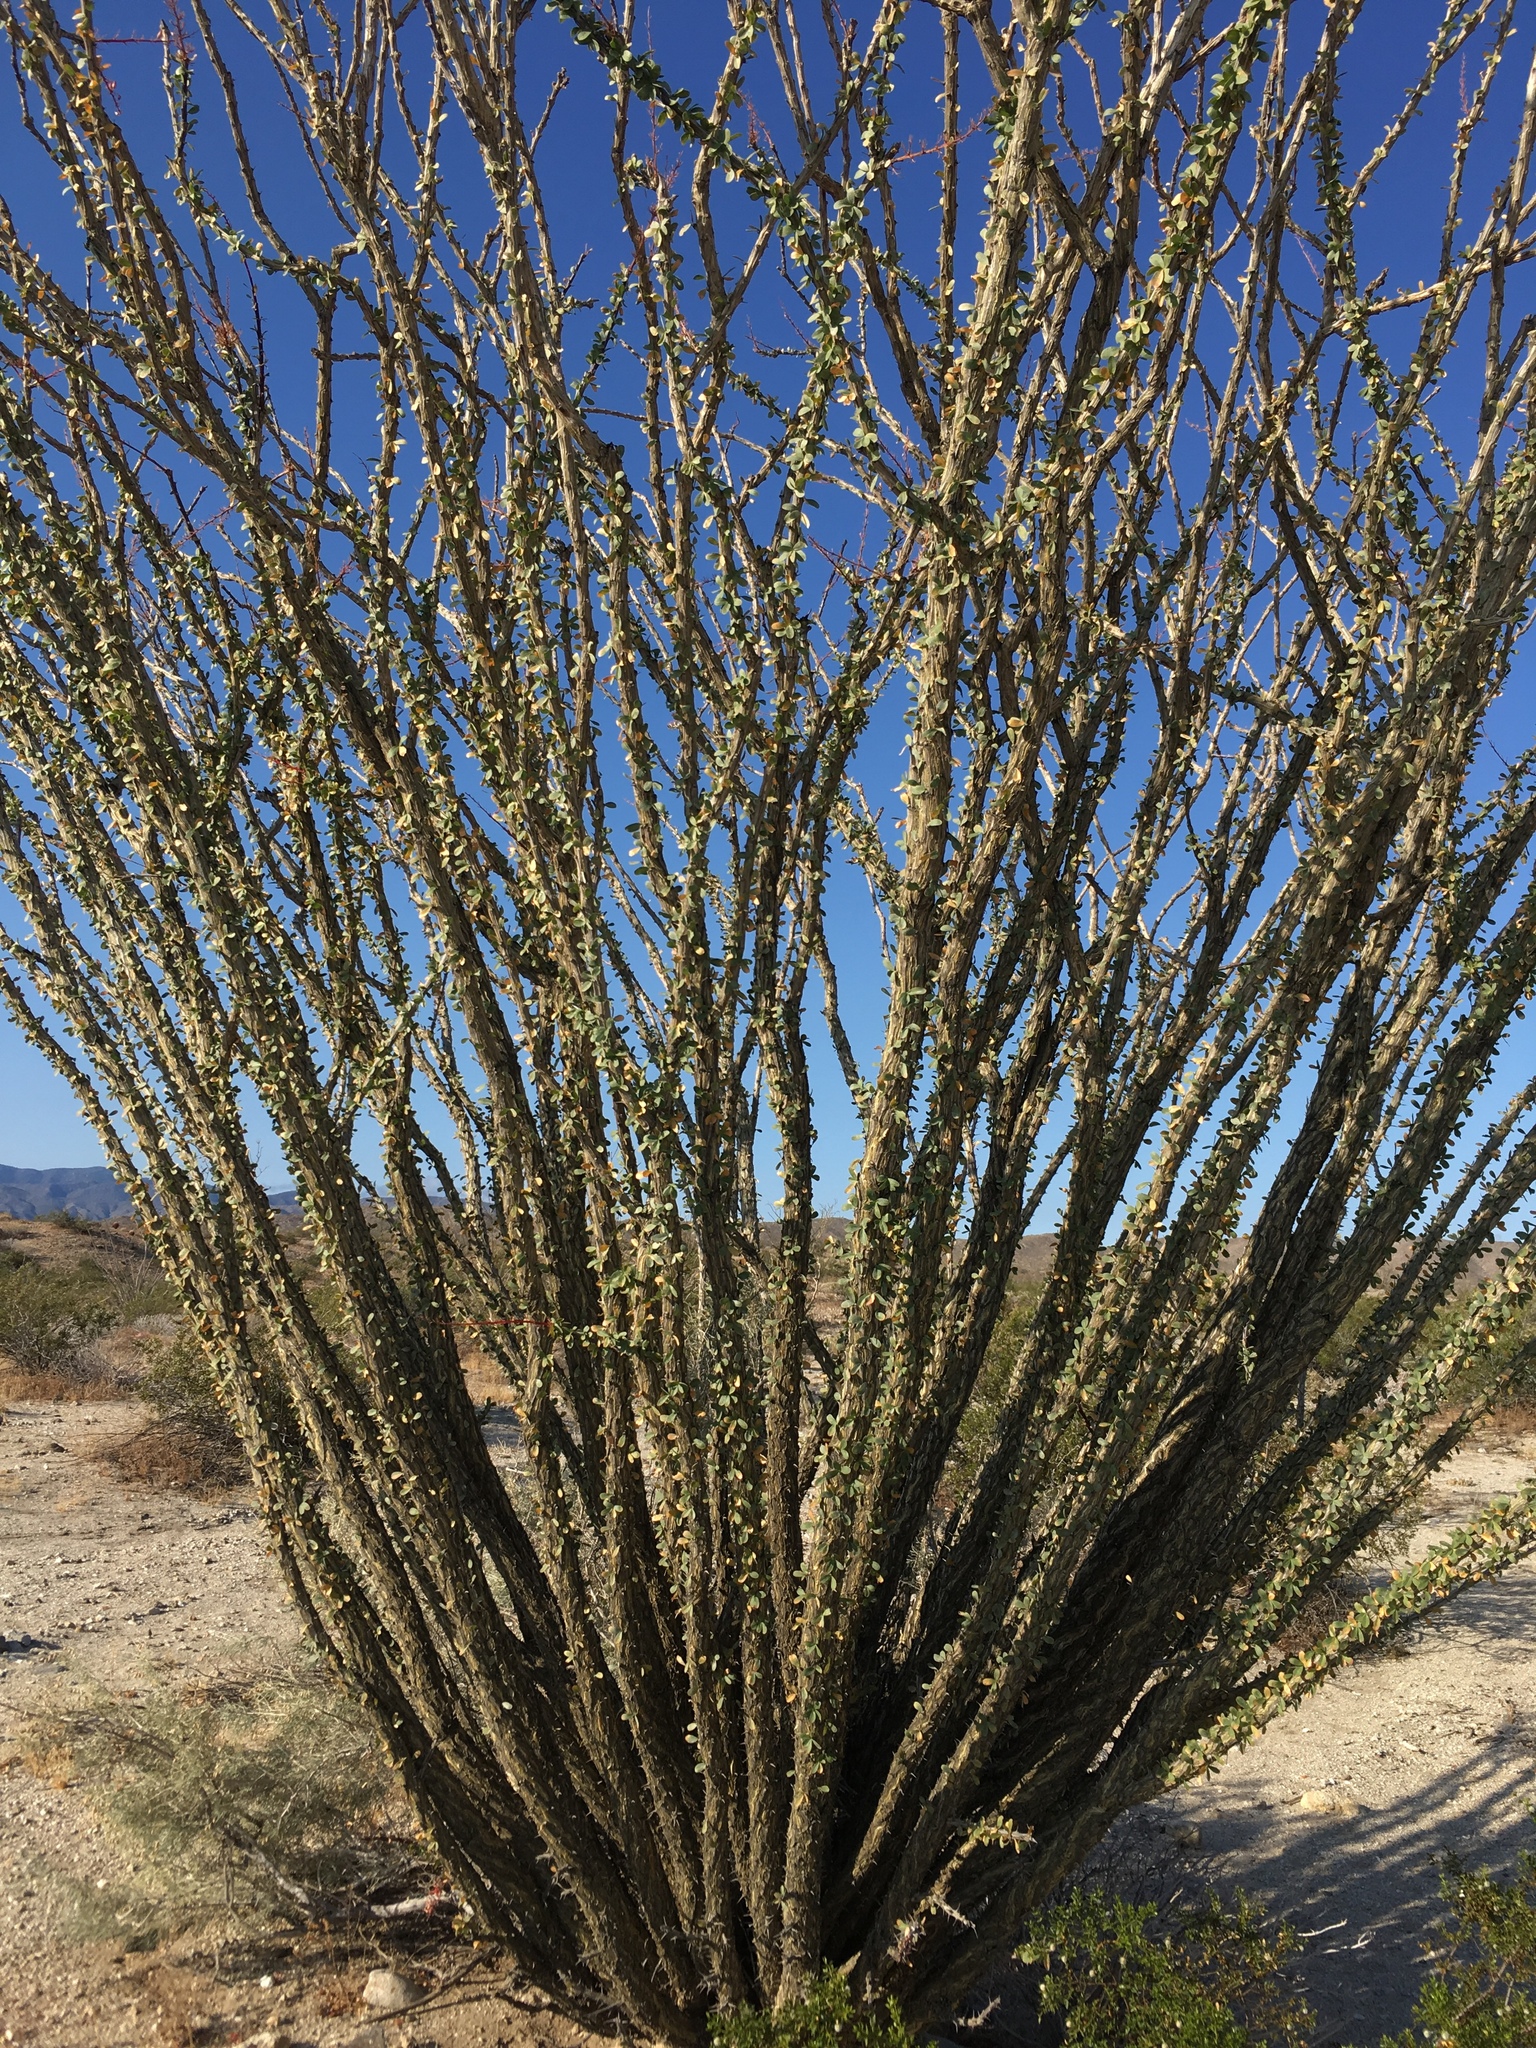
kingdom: Plantae
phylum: Tracheophyta
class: Magnoliopsida
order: Ericales
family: Fouquieriaceae
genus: Fouquieria
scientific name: Fouquieria splendens
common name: Vine-cactus
